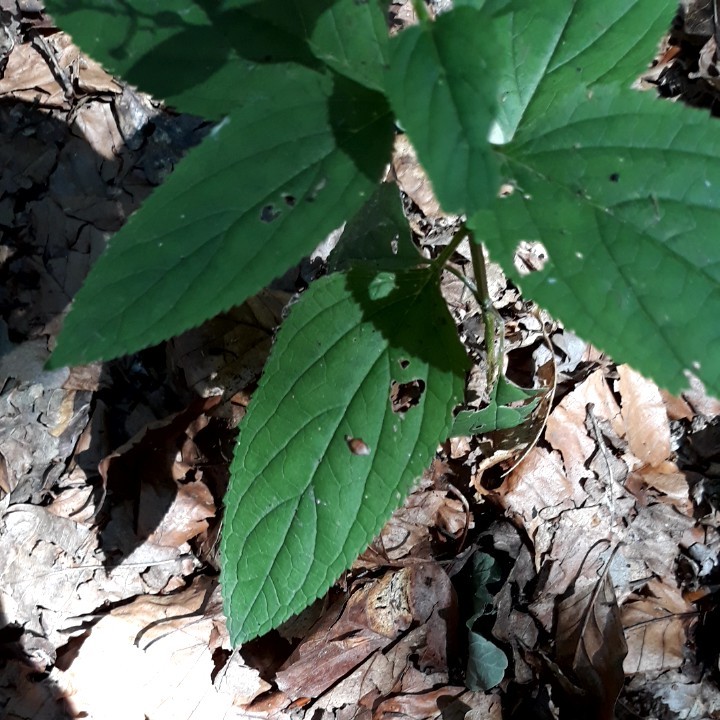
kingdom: Plantae
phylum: Tracheophyta
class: Magnoliopsida
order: Lamiales
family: Scrophulariaceae
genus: Scrophularia
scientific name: Scrophularia nodosa
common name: Common figwort
